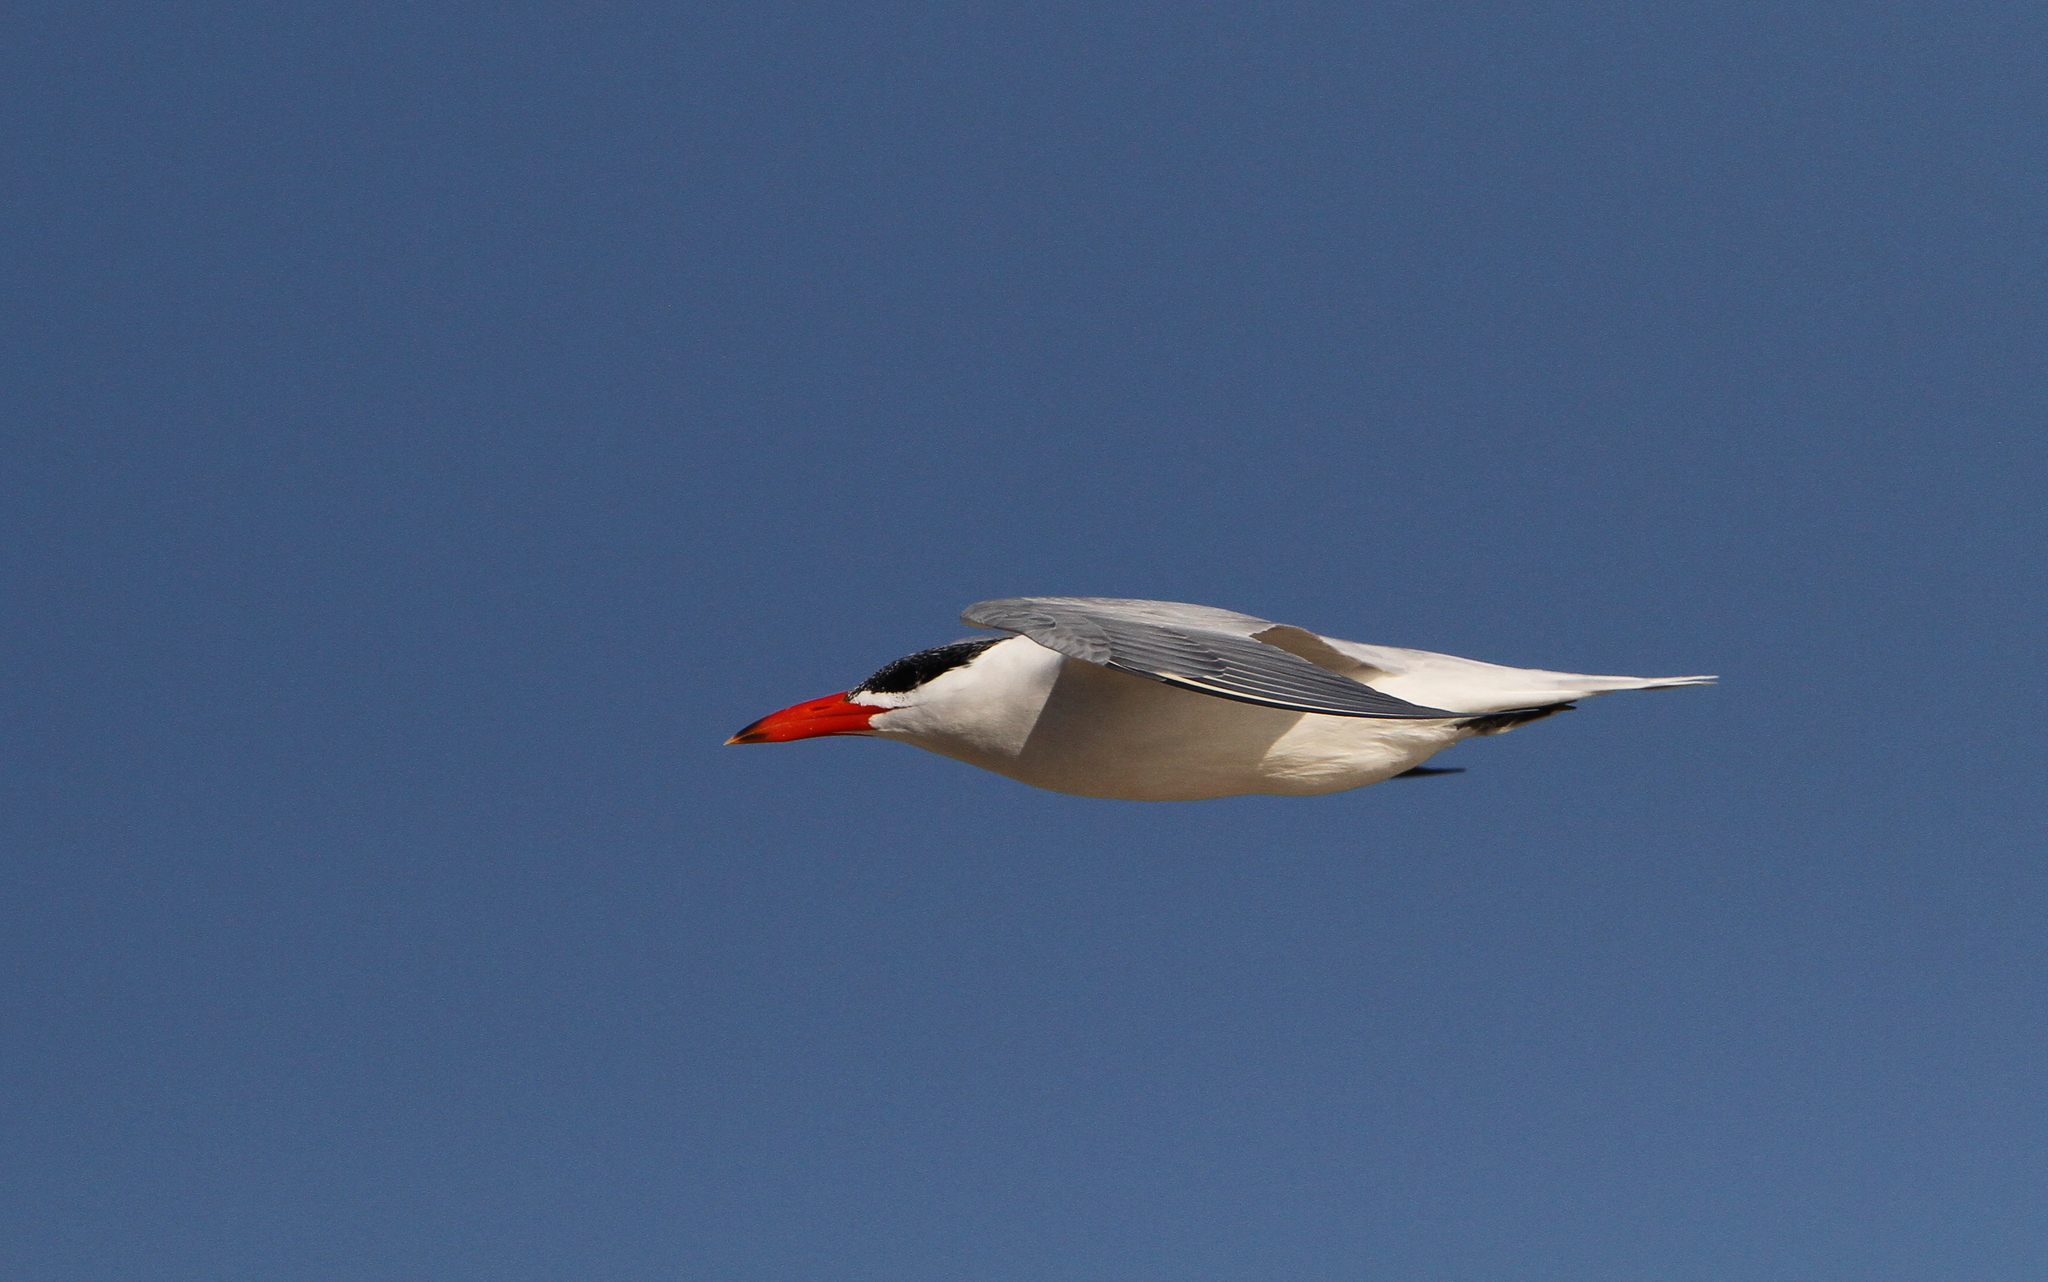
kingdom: Animalia
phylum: Chordata
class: Aves
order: Charadriiformes
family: Laridae
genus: Hydroprogne
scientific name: Hydroprogne caspia
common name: Caspian tern
